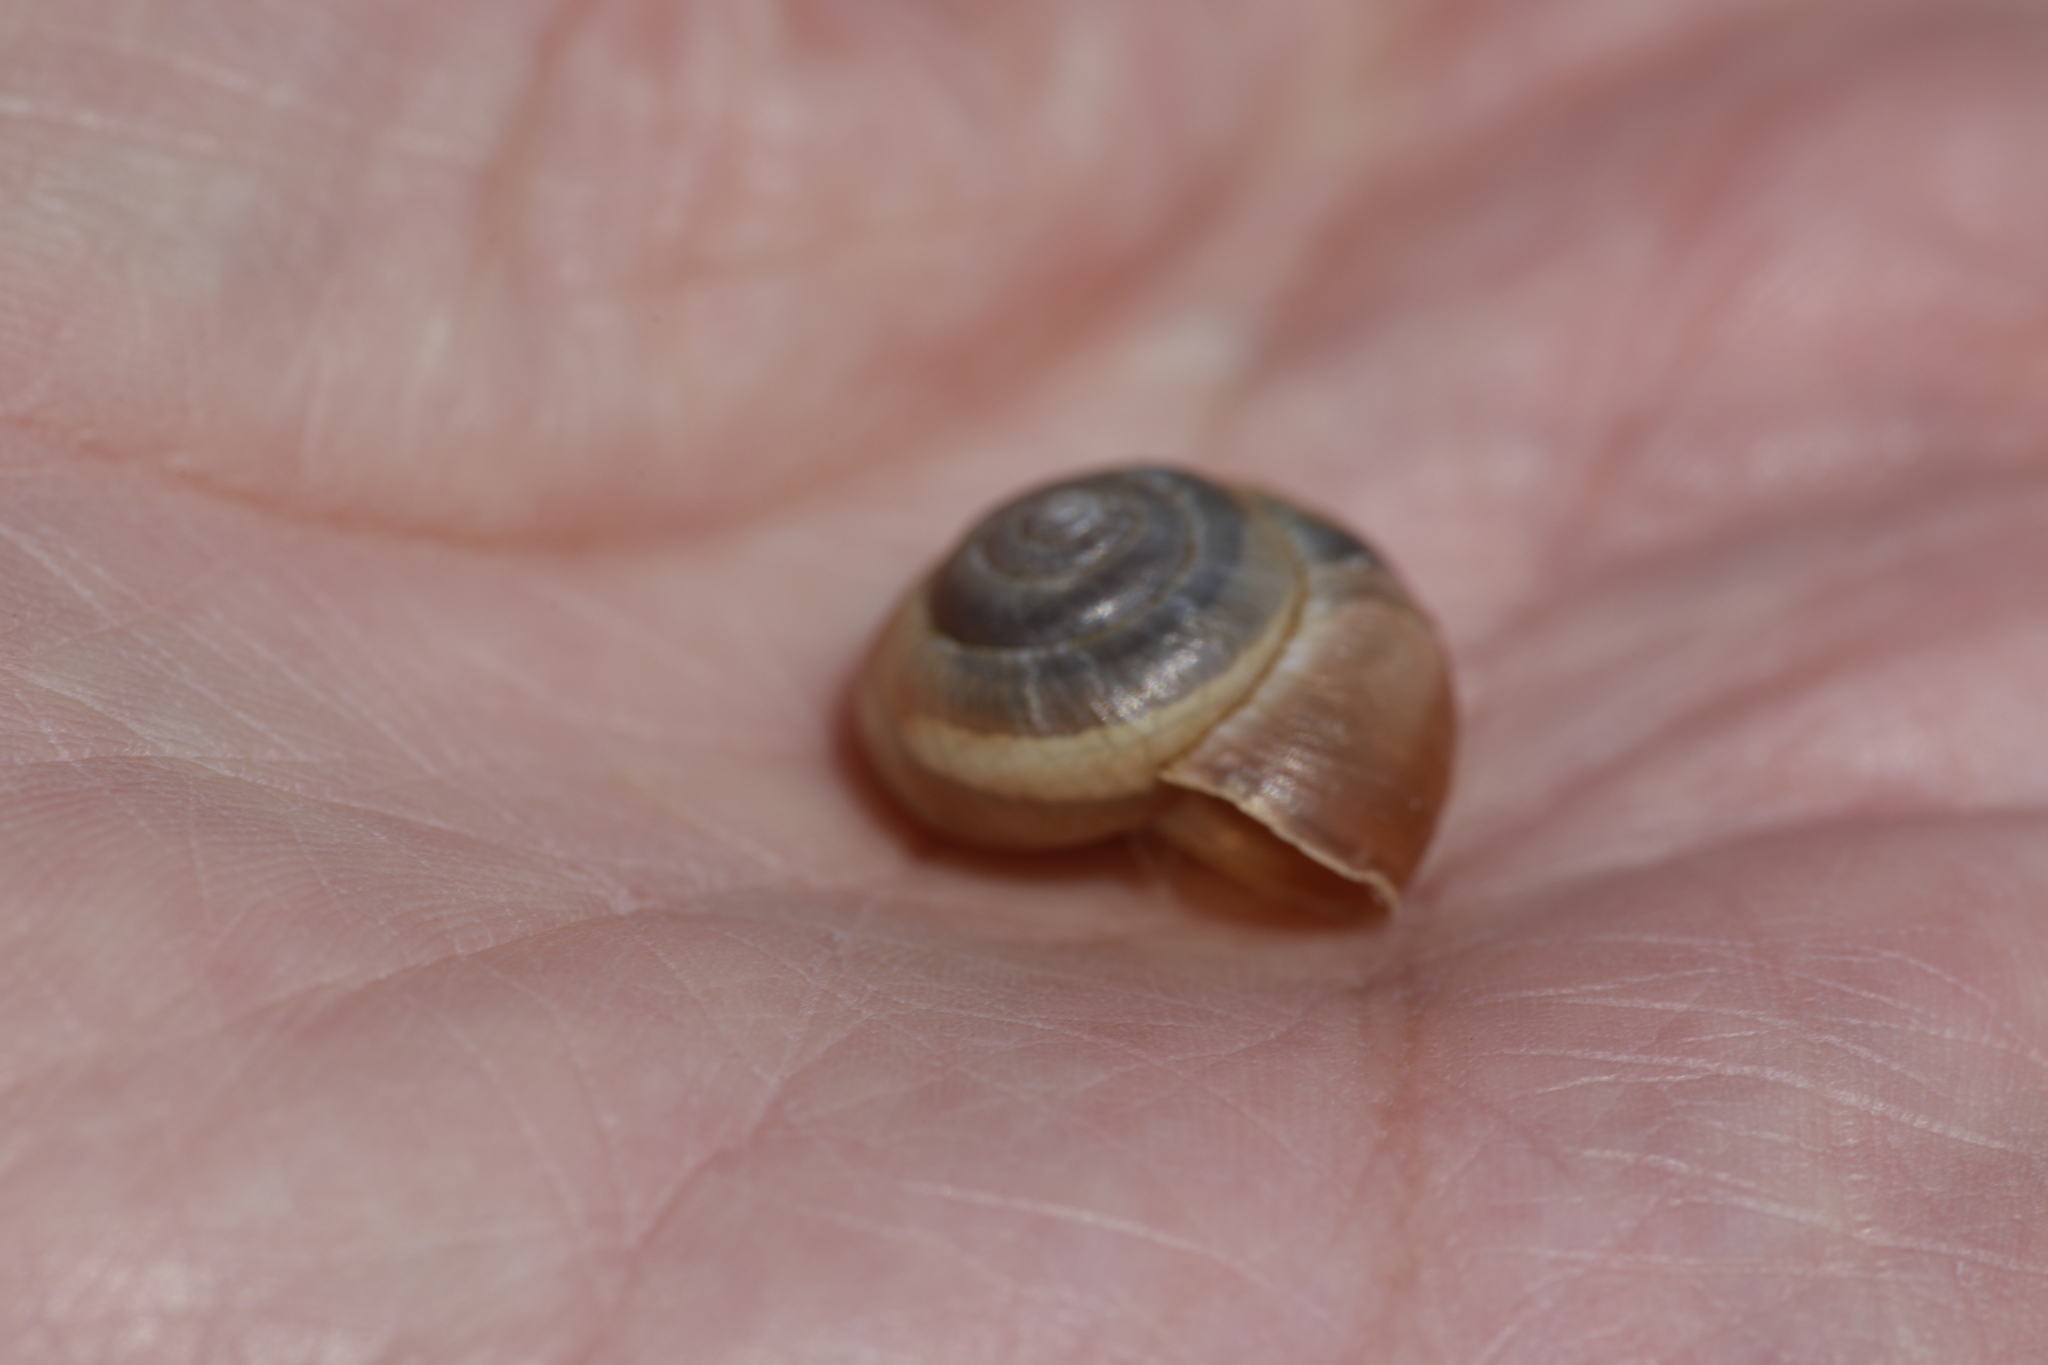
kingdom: Animalia
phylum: Mollusca
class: Gastropoda
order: Stylommatophora
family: Hygromiidae
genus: Trochulus
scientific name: Trochulus striolatus
